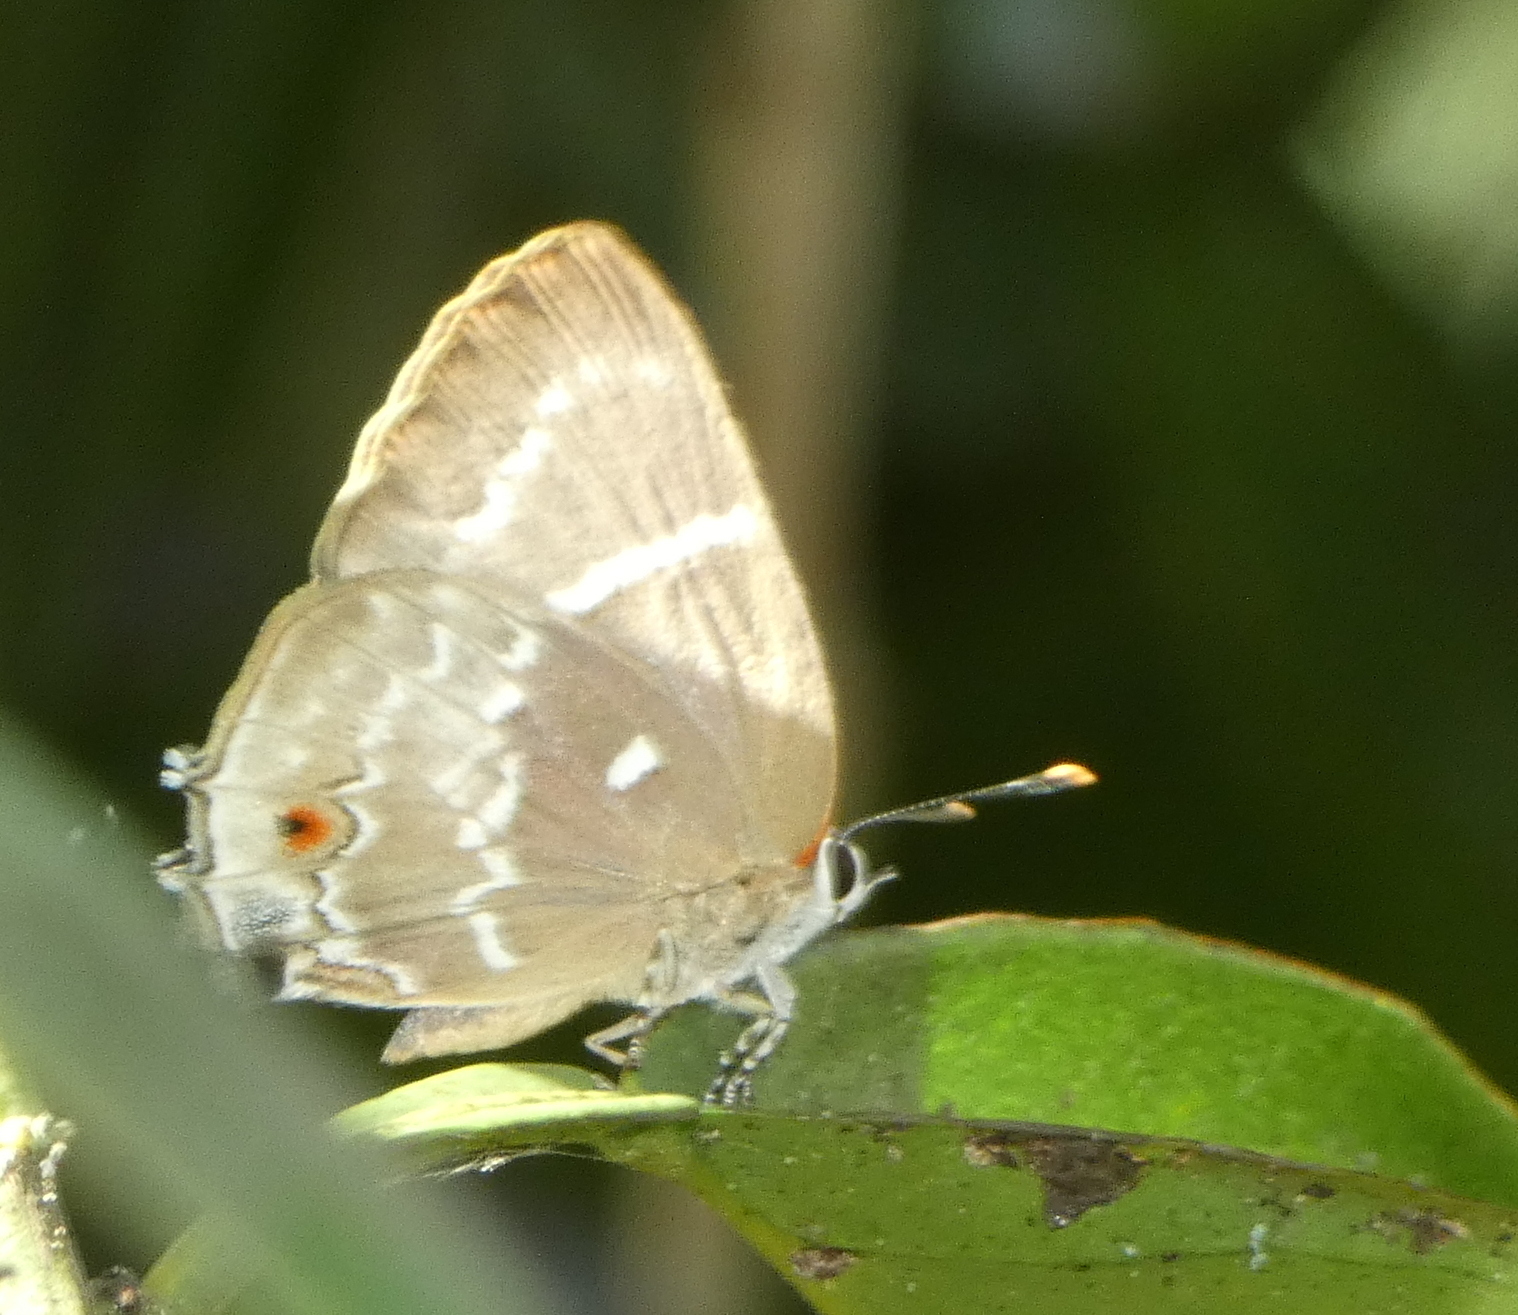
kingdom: Animalia
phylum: Arthropoda
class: Insecta
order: Lepidoptera
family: Lycaenidae
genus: Thecla
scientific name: Thecla phoenissa
